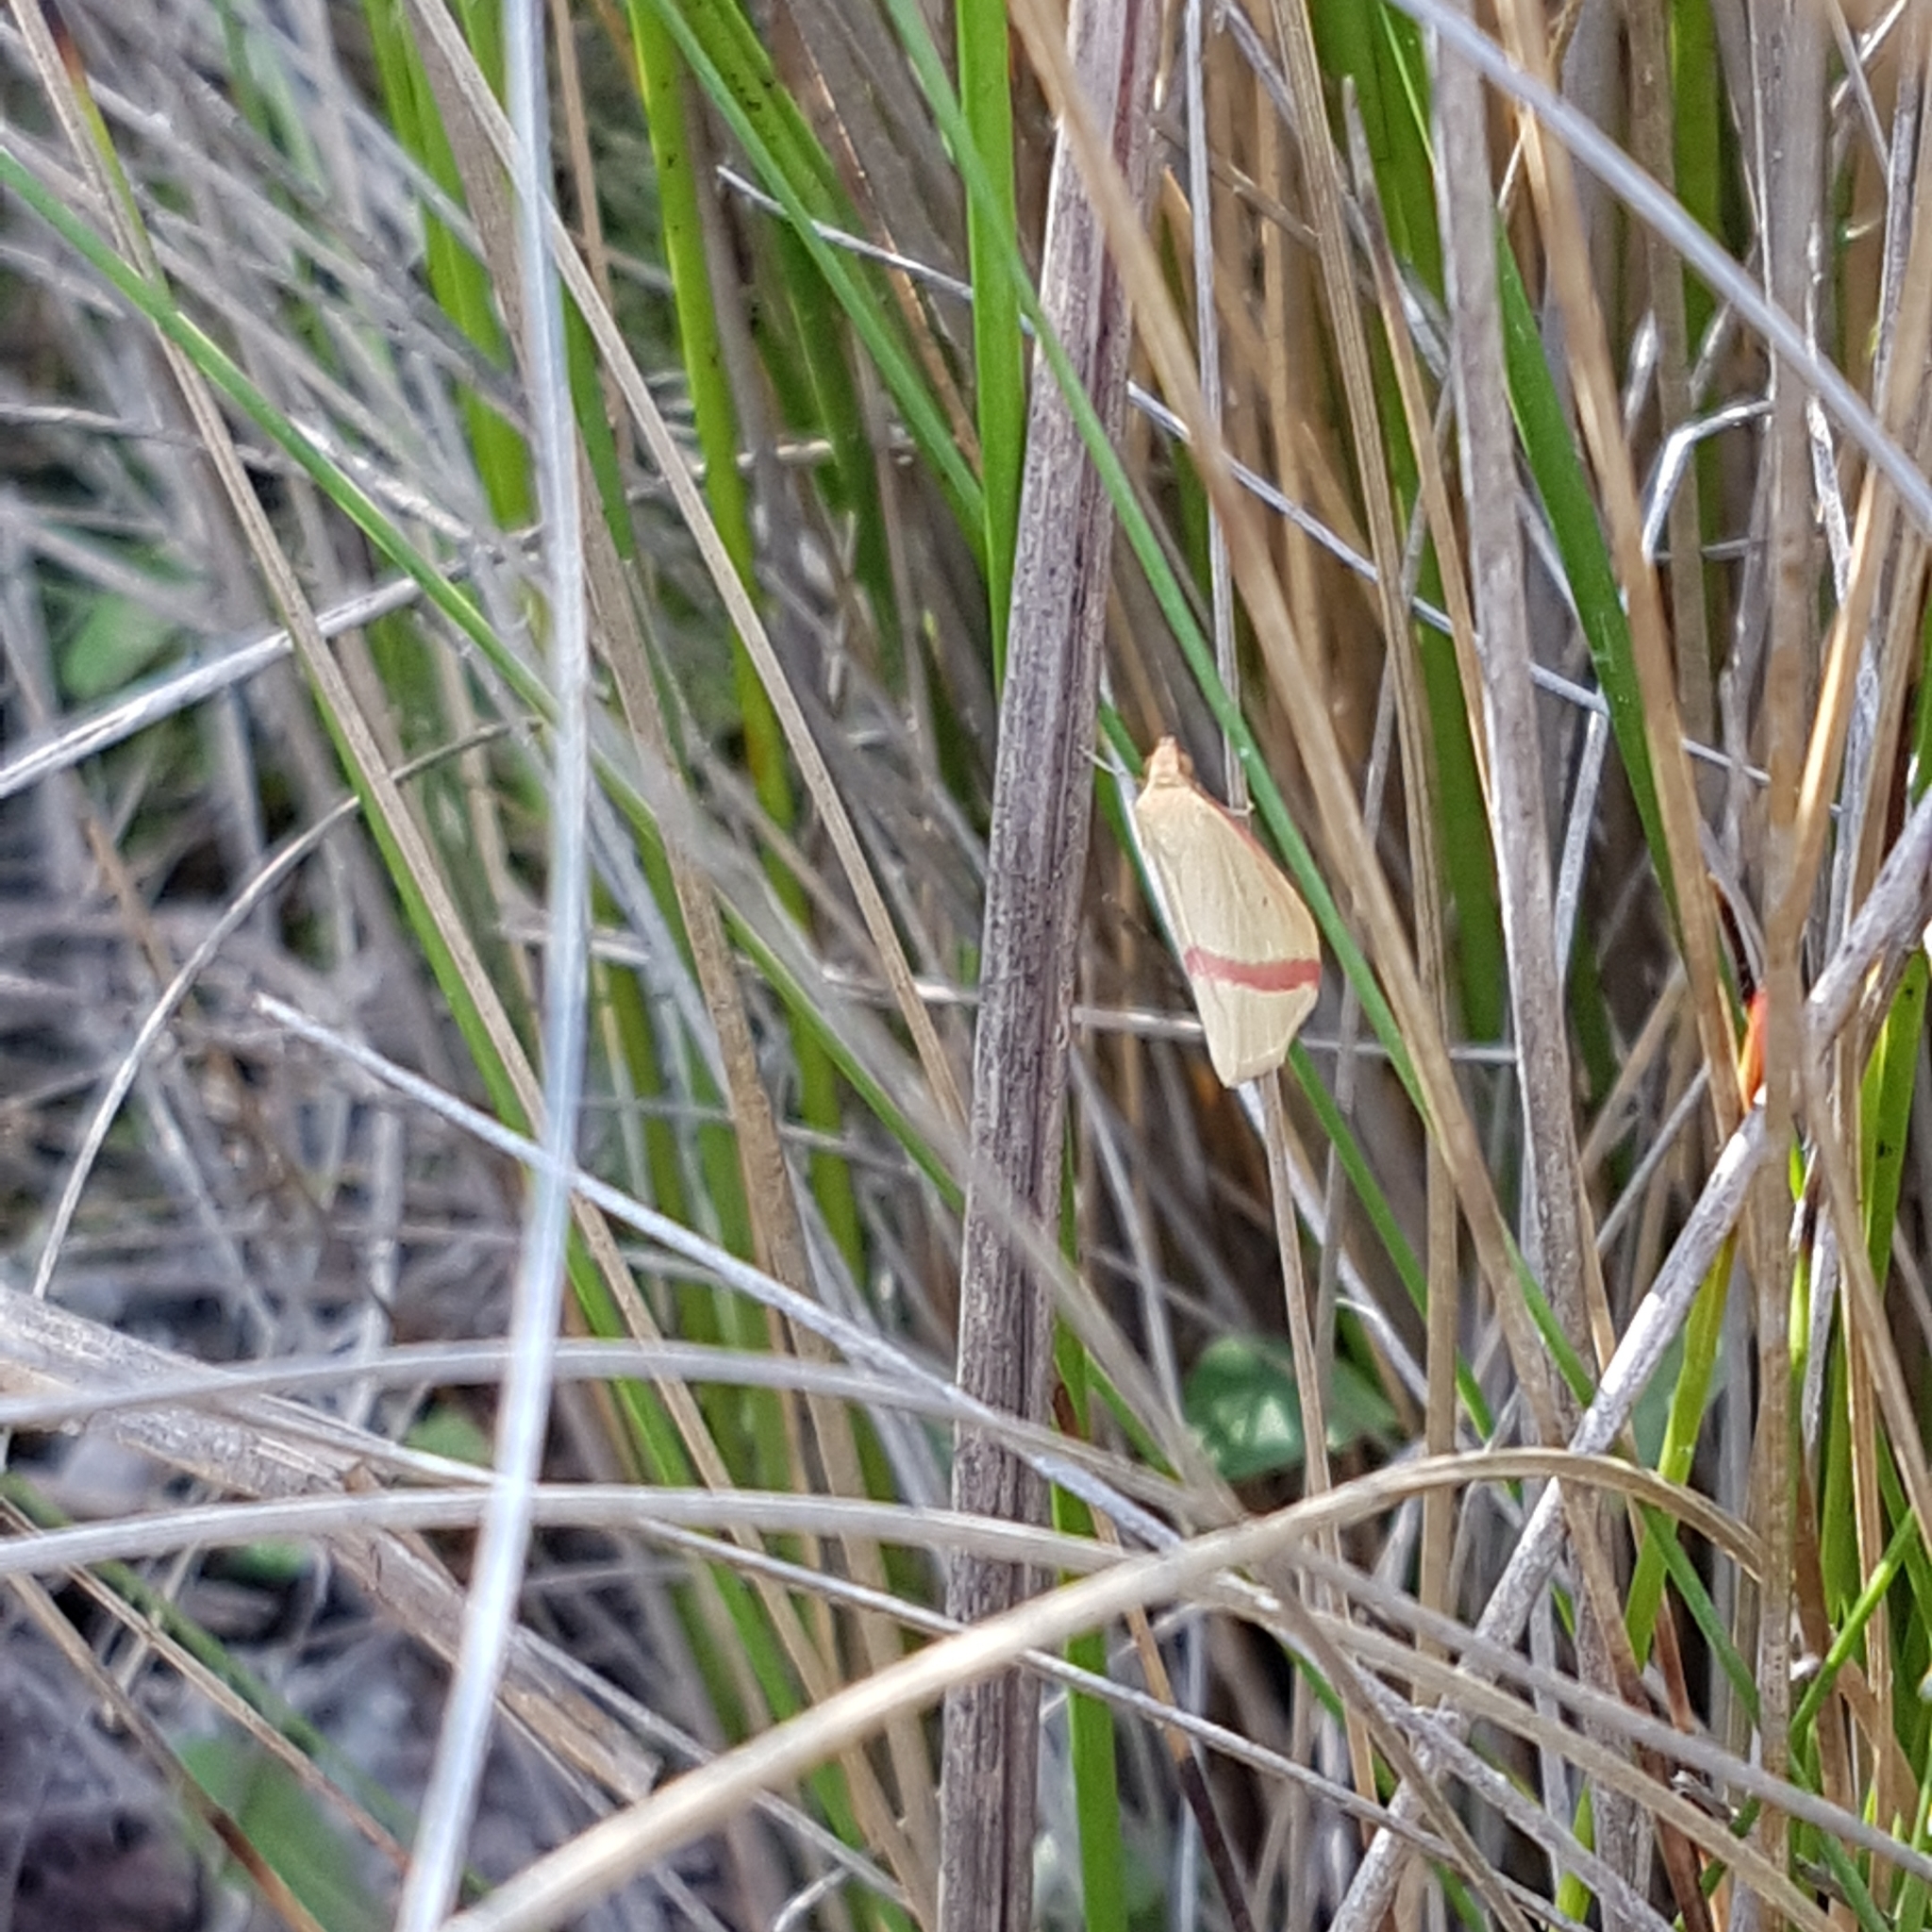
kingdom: Animalia
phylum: Arthropoda
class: Insecta
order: Lepidoptera
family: Geometridae
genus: Rhodometra
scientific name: Rhodometra sacraria
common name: Vestal
